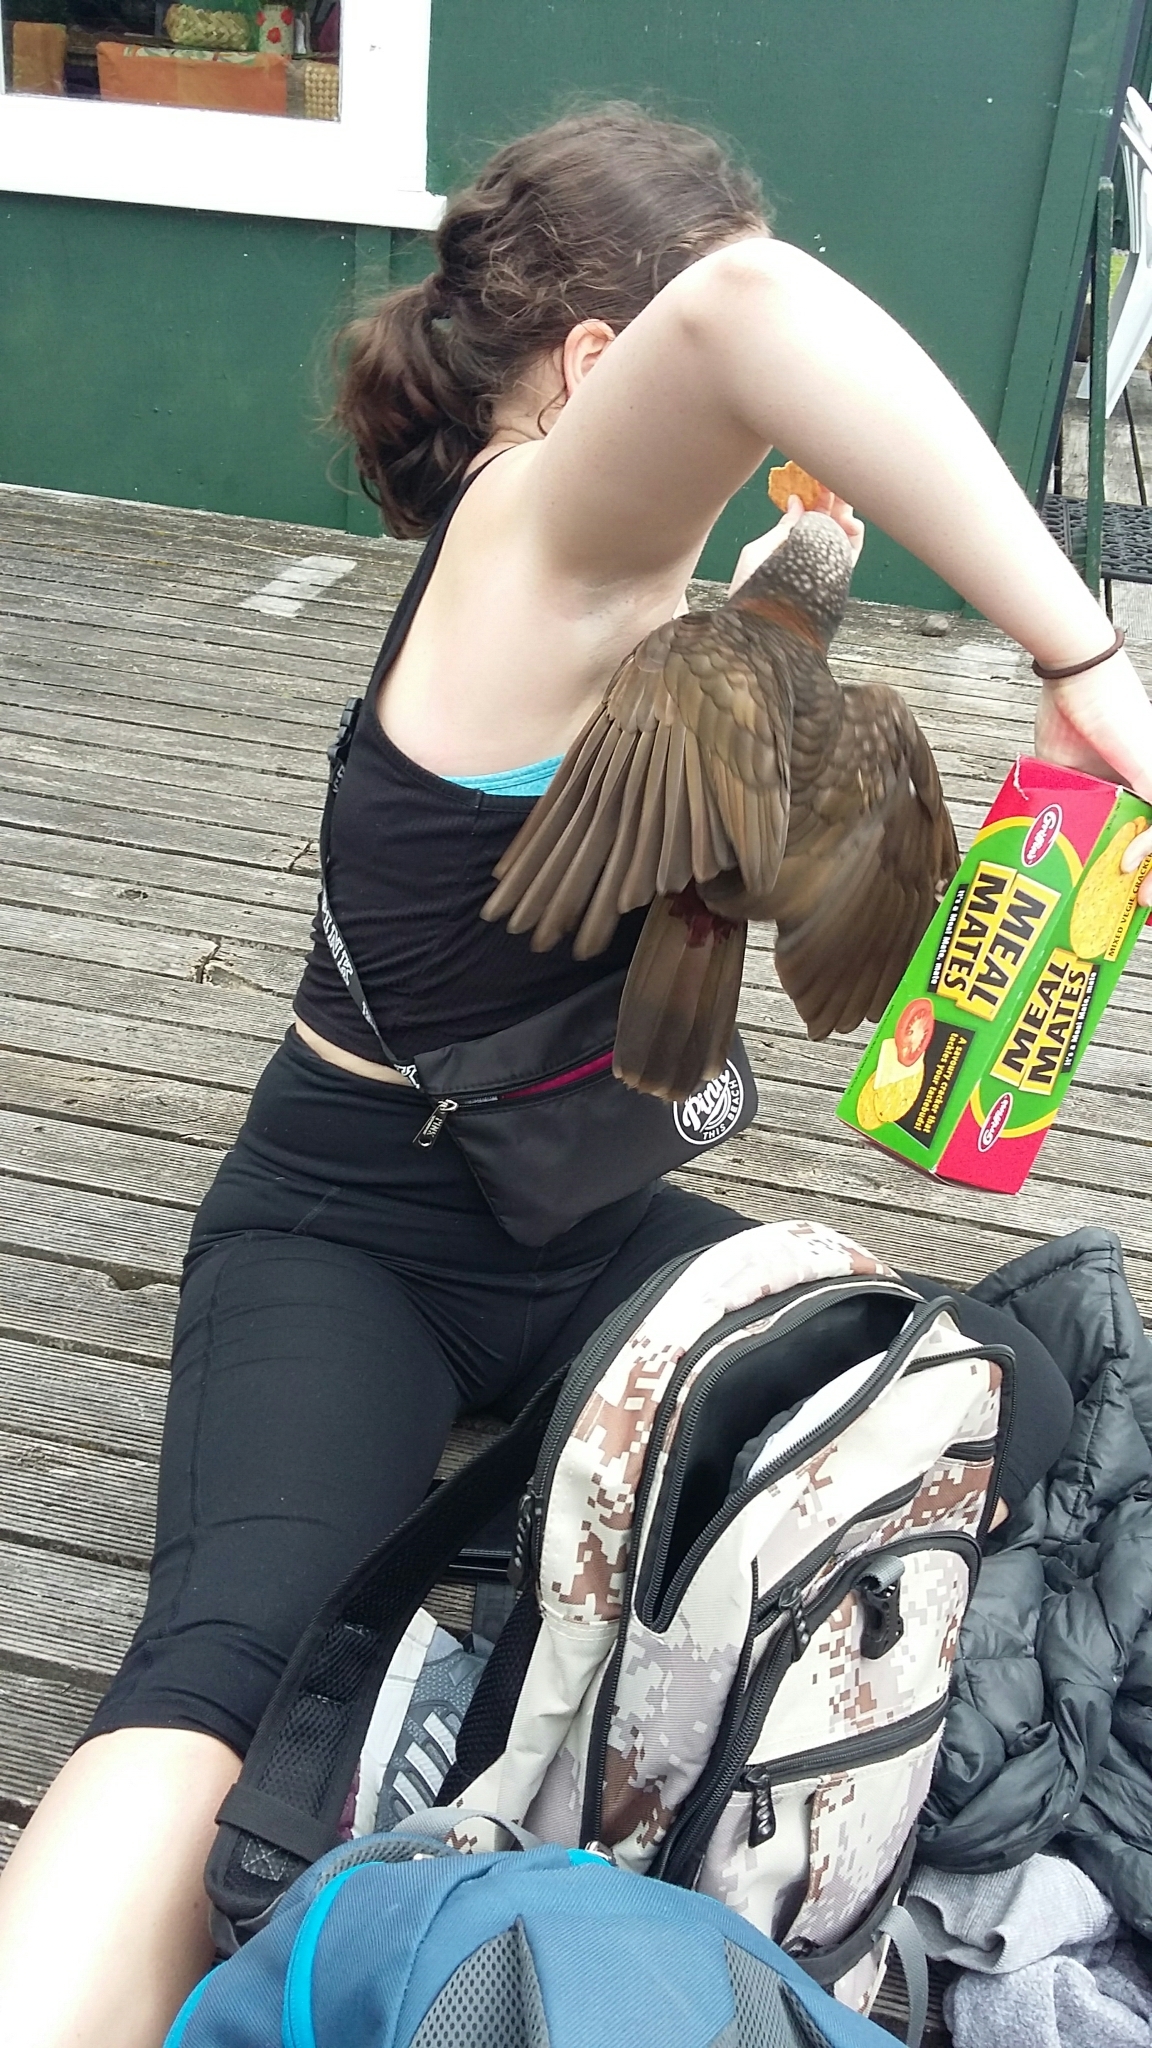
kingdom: Animalia
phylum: Chordata
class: Aves
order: Psittaciformes
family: Psittacidae
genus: Nestor
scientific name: Nestor meridionalis
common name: New zealand kaka
